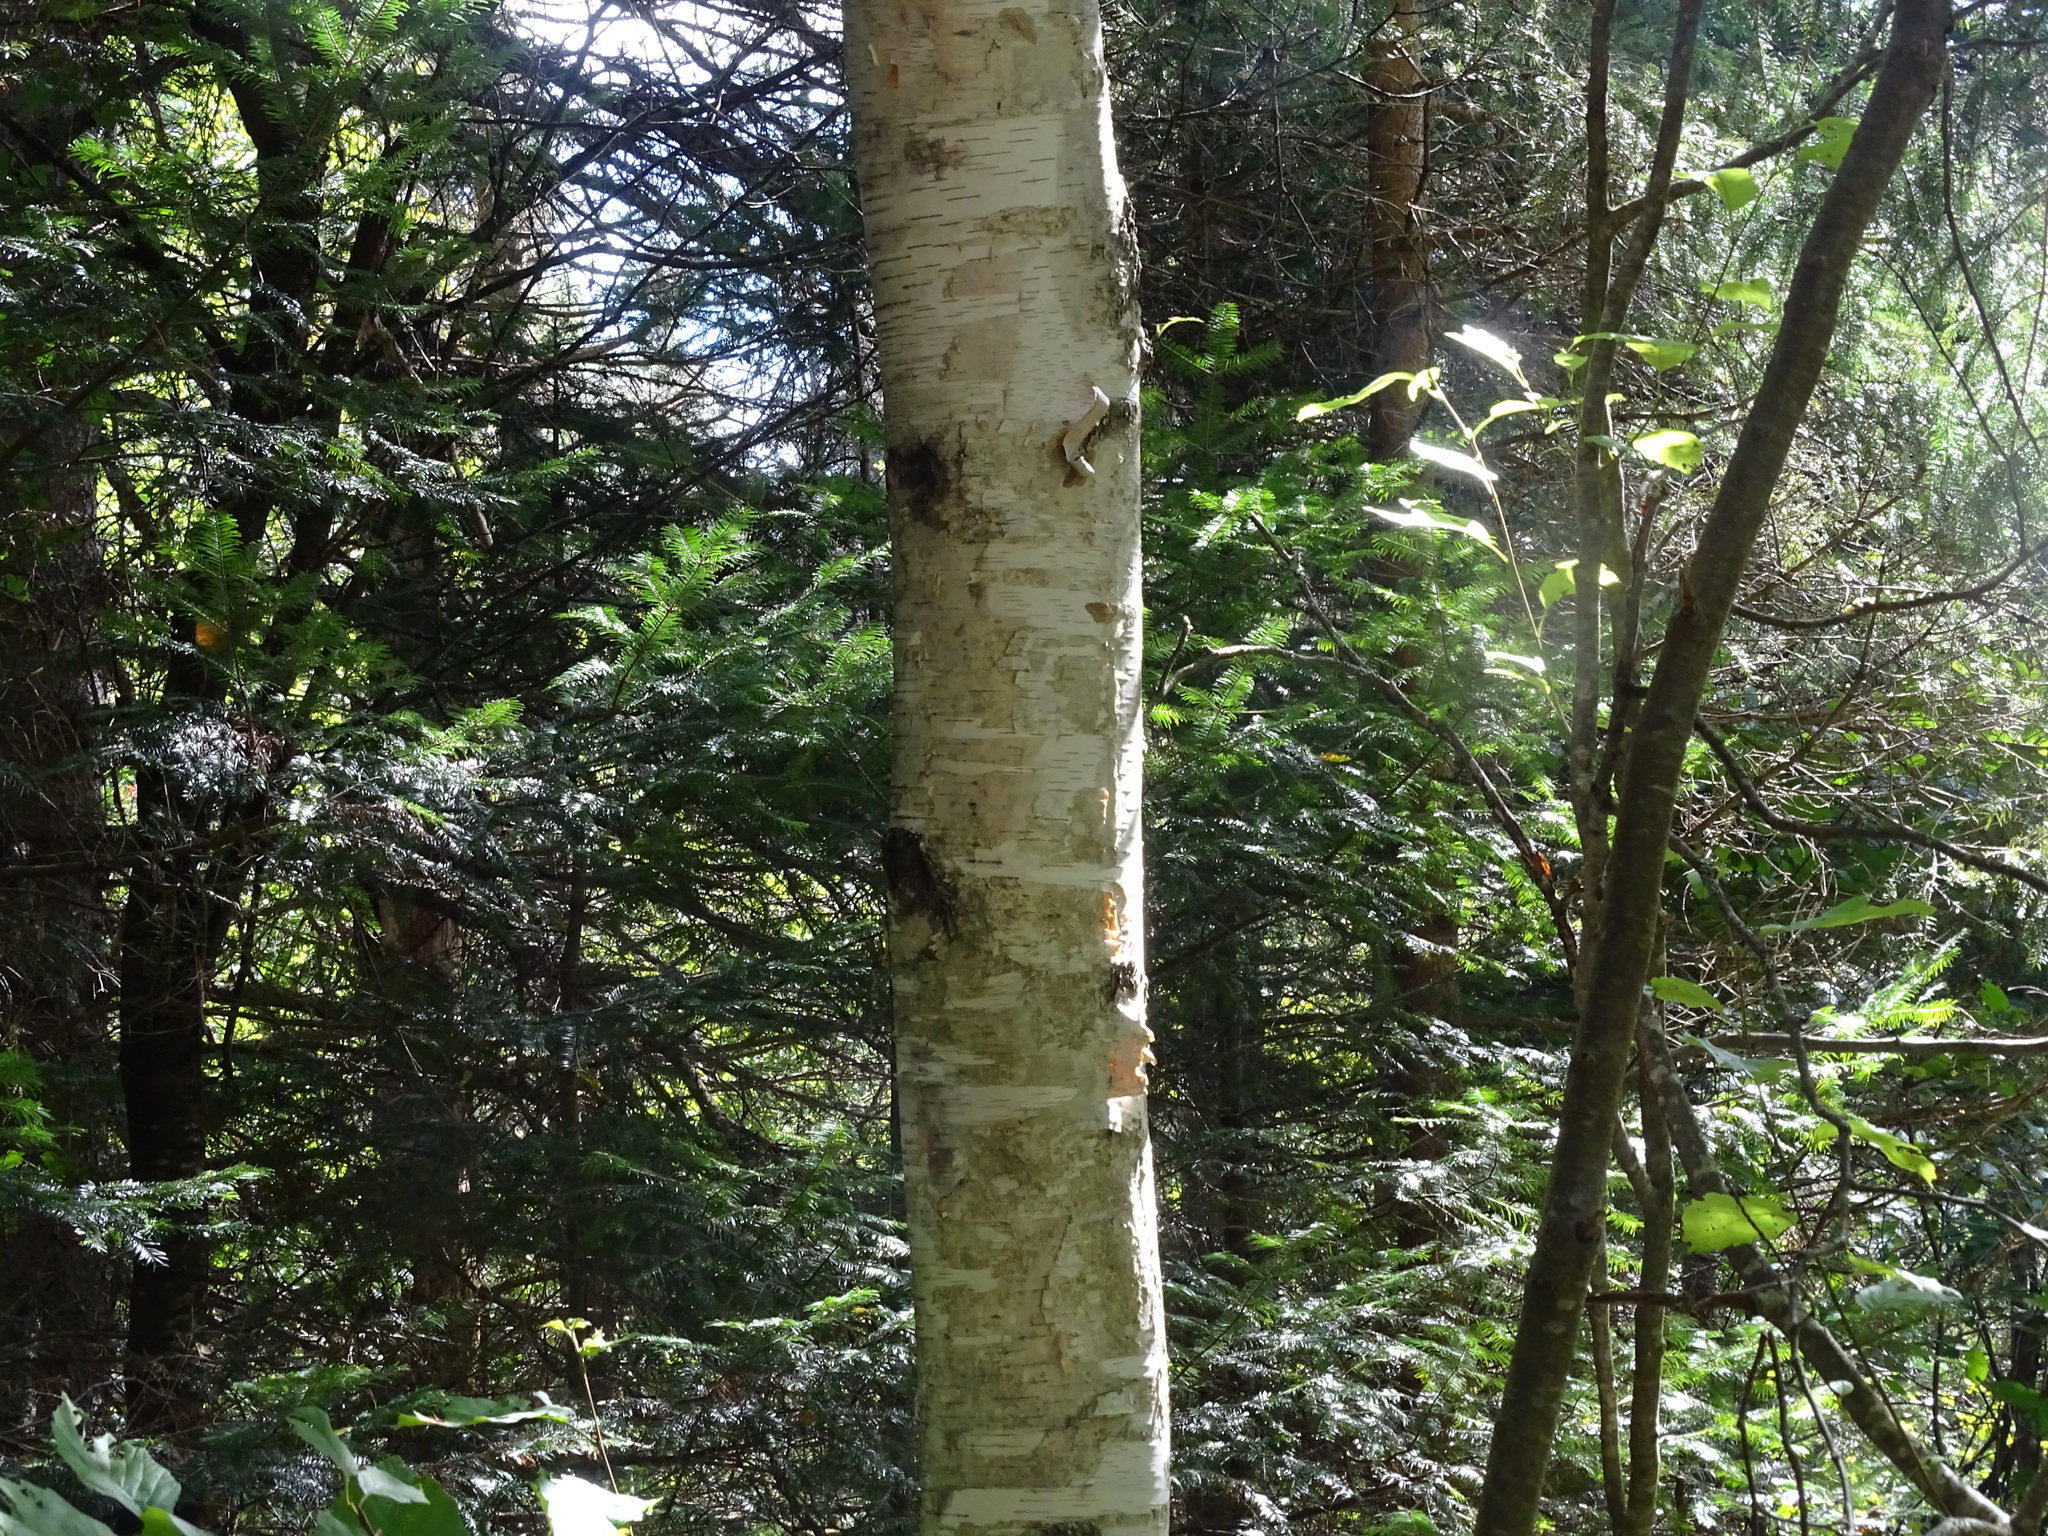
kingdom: Plantae
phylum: Tracheophyta
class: Magnoliopsida
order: Fagales
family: Betulaceae
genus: Betula
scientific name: Betula papyrifera
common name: Paper birch
